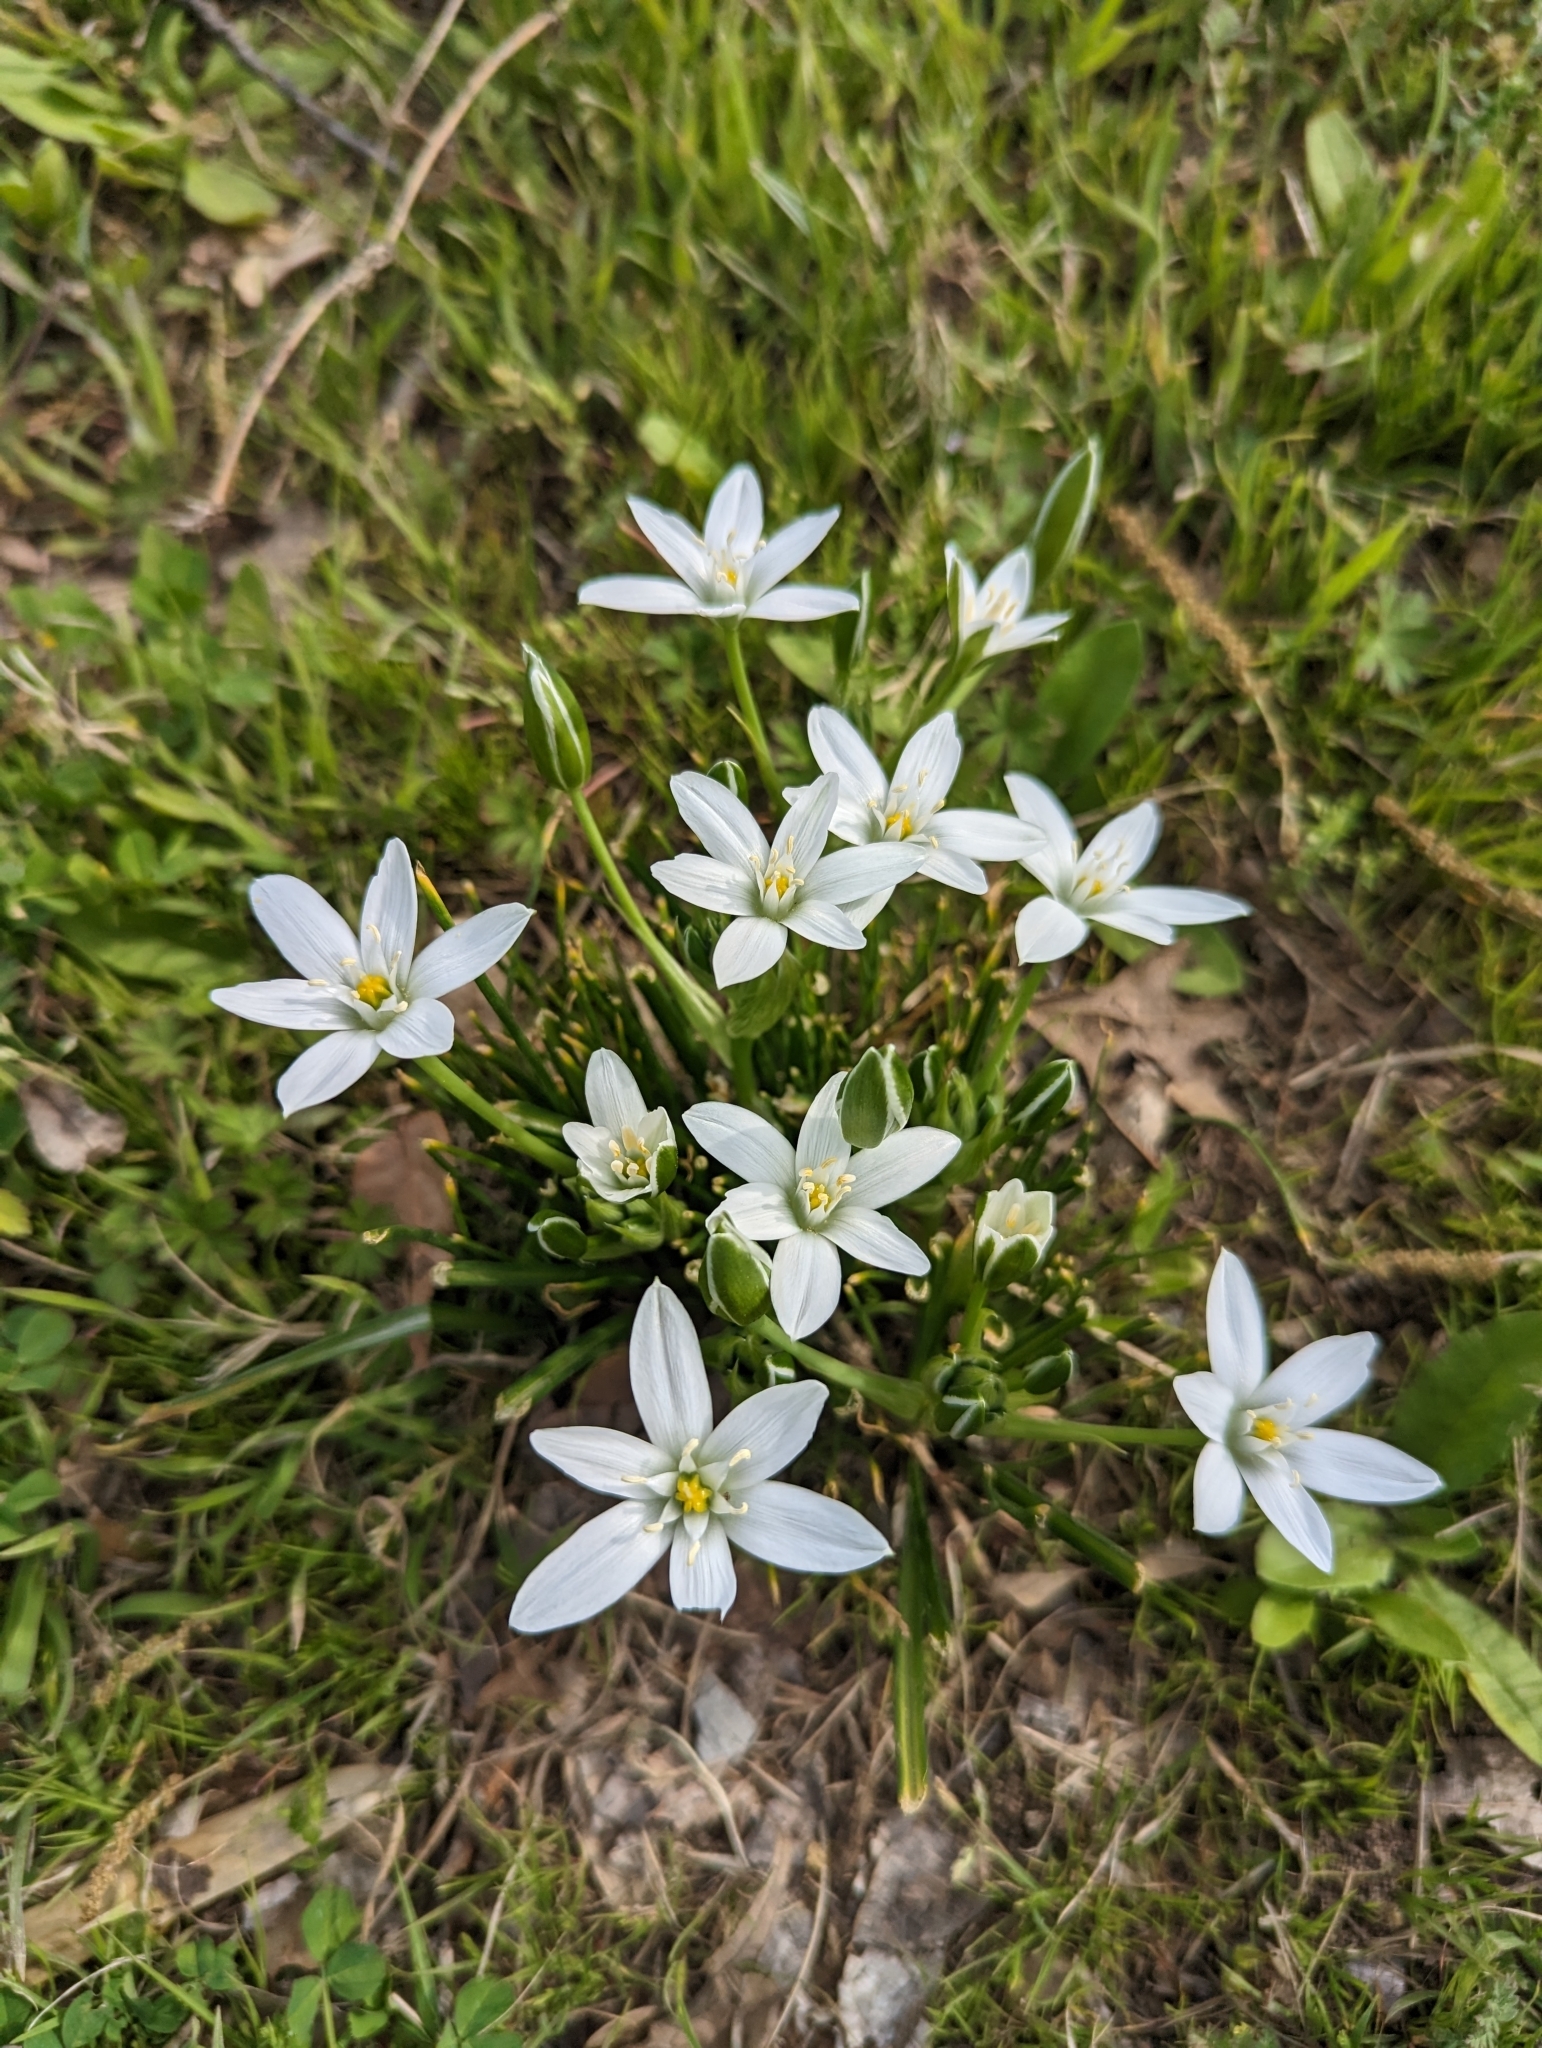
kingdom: Plantae
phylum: Tracheophyta
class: Liliopsida
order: Asparagales
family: Asparagaceae
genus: Ornithogalum
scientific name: Ornithogalum umbellatum
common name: Garden star-of-bethlehem
